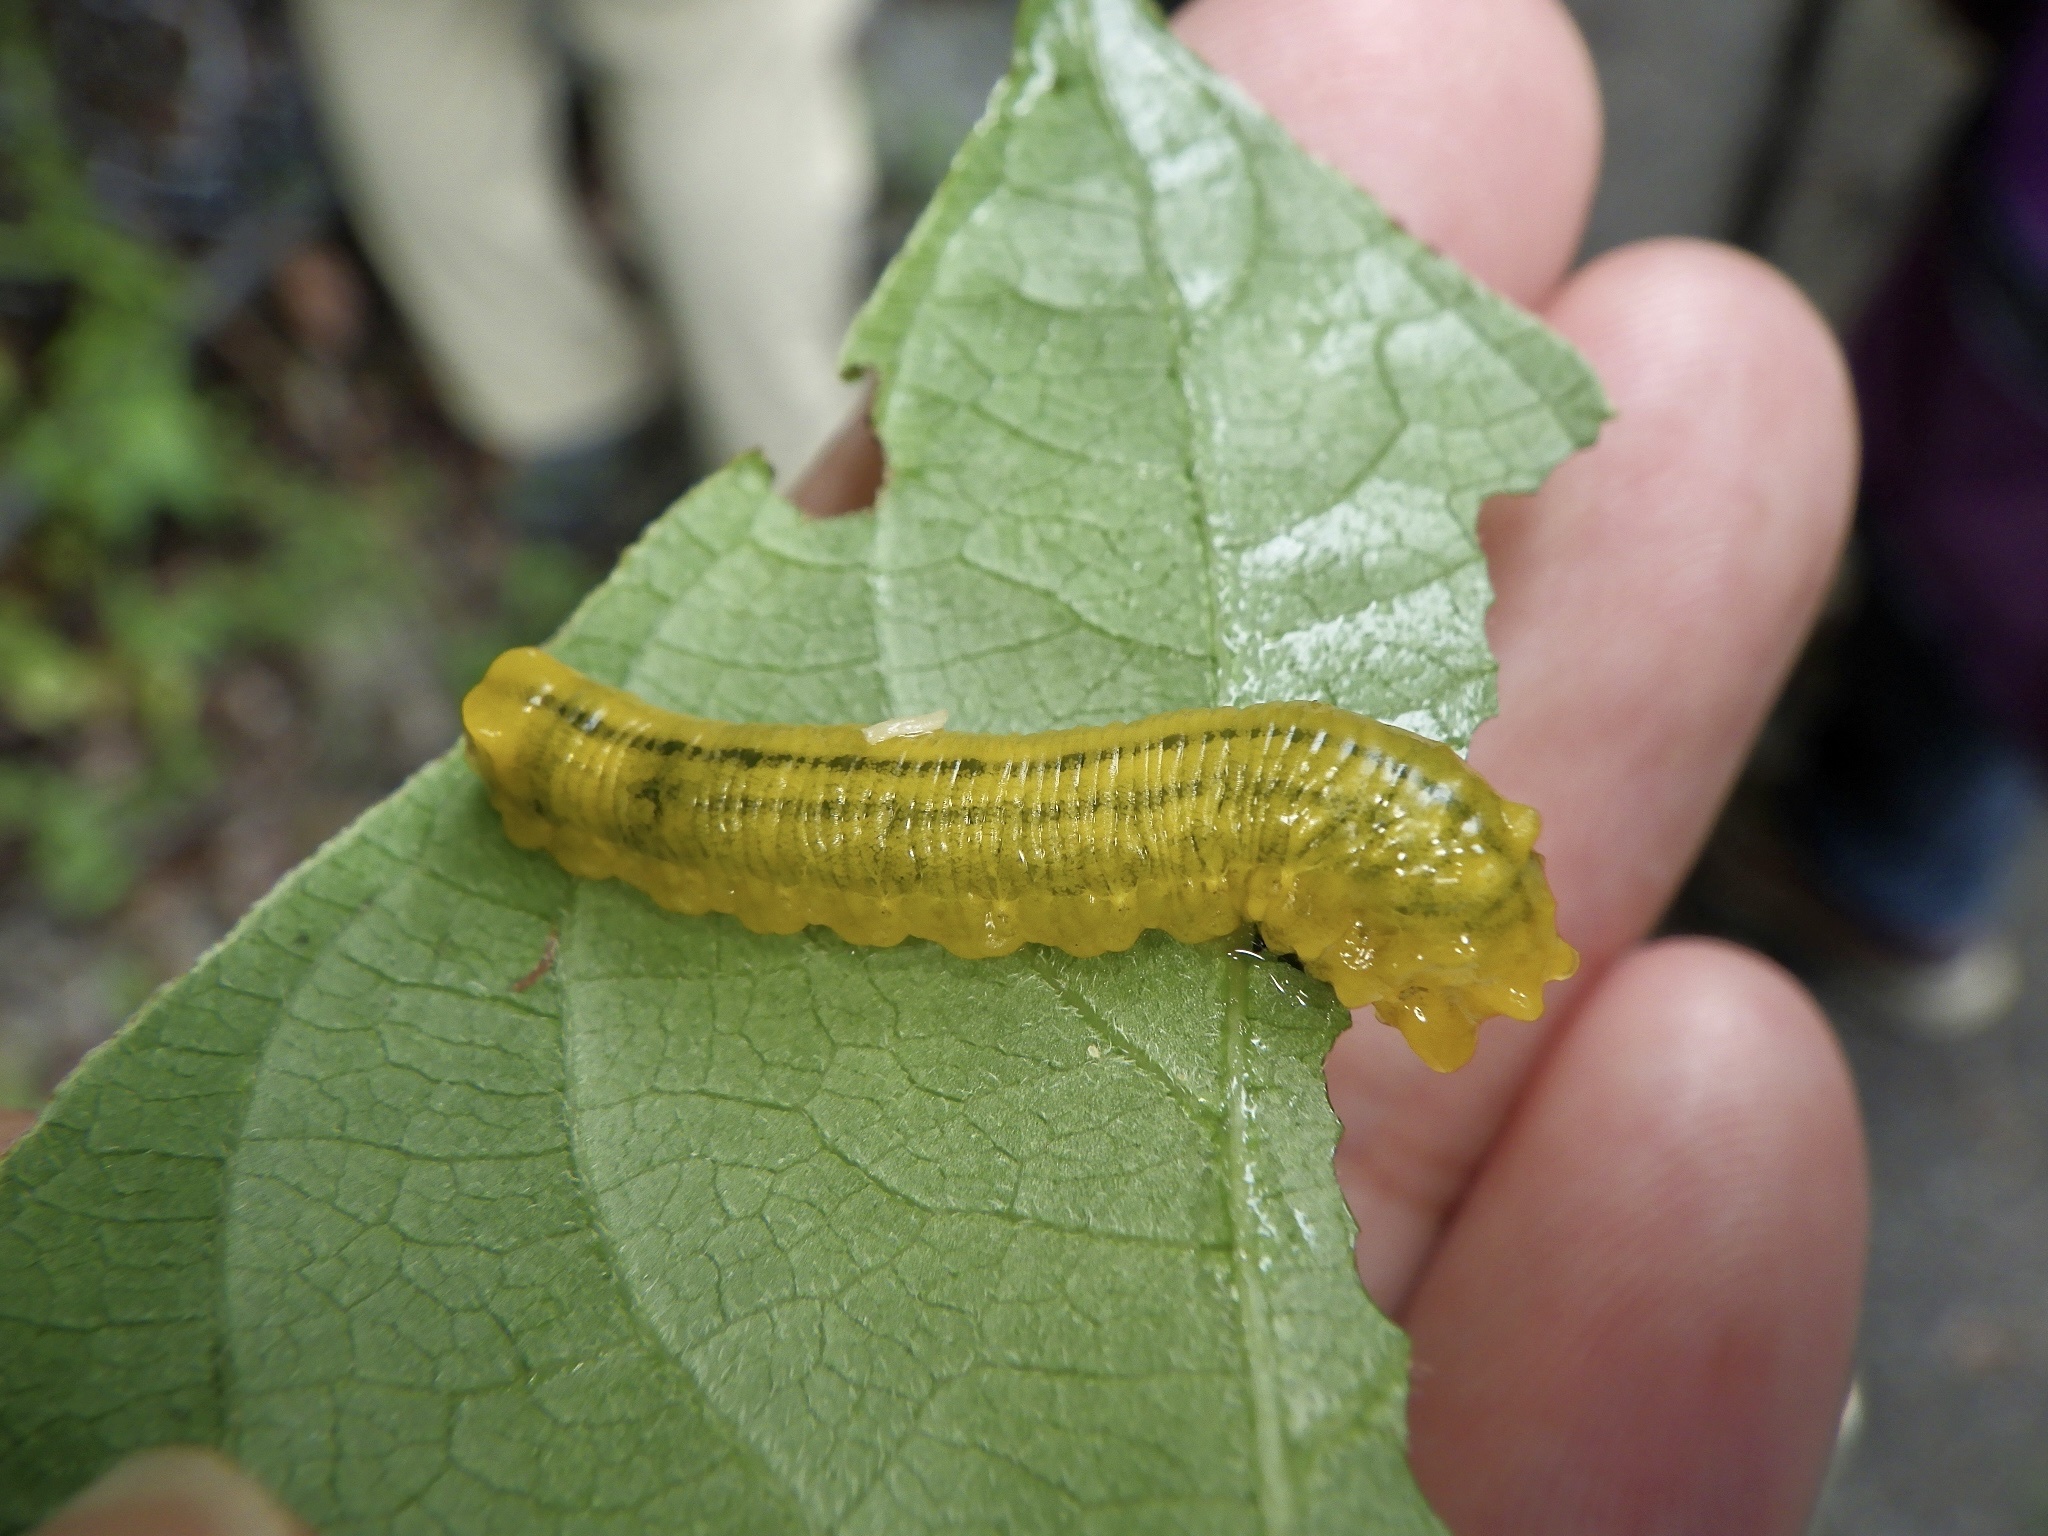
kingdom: Animalia
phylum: Arthropoda
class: Insecta
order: Hymenoptera
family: Tenthredinidae
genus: Nesotaxonus
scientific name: Nesotaxonus fulvus
